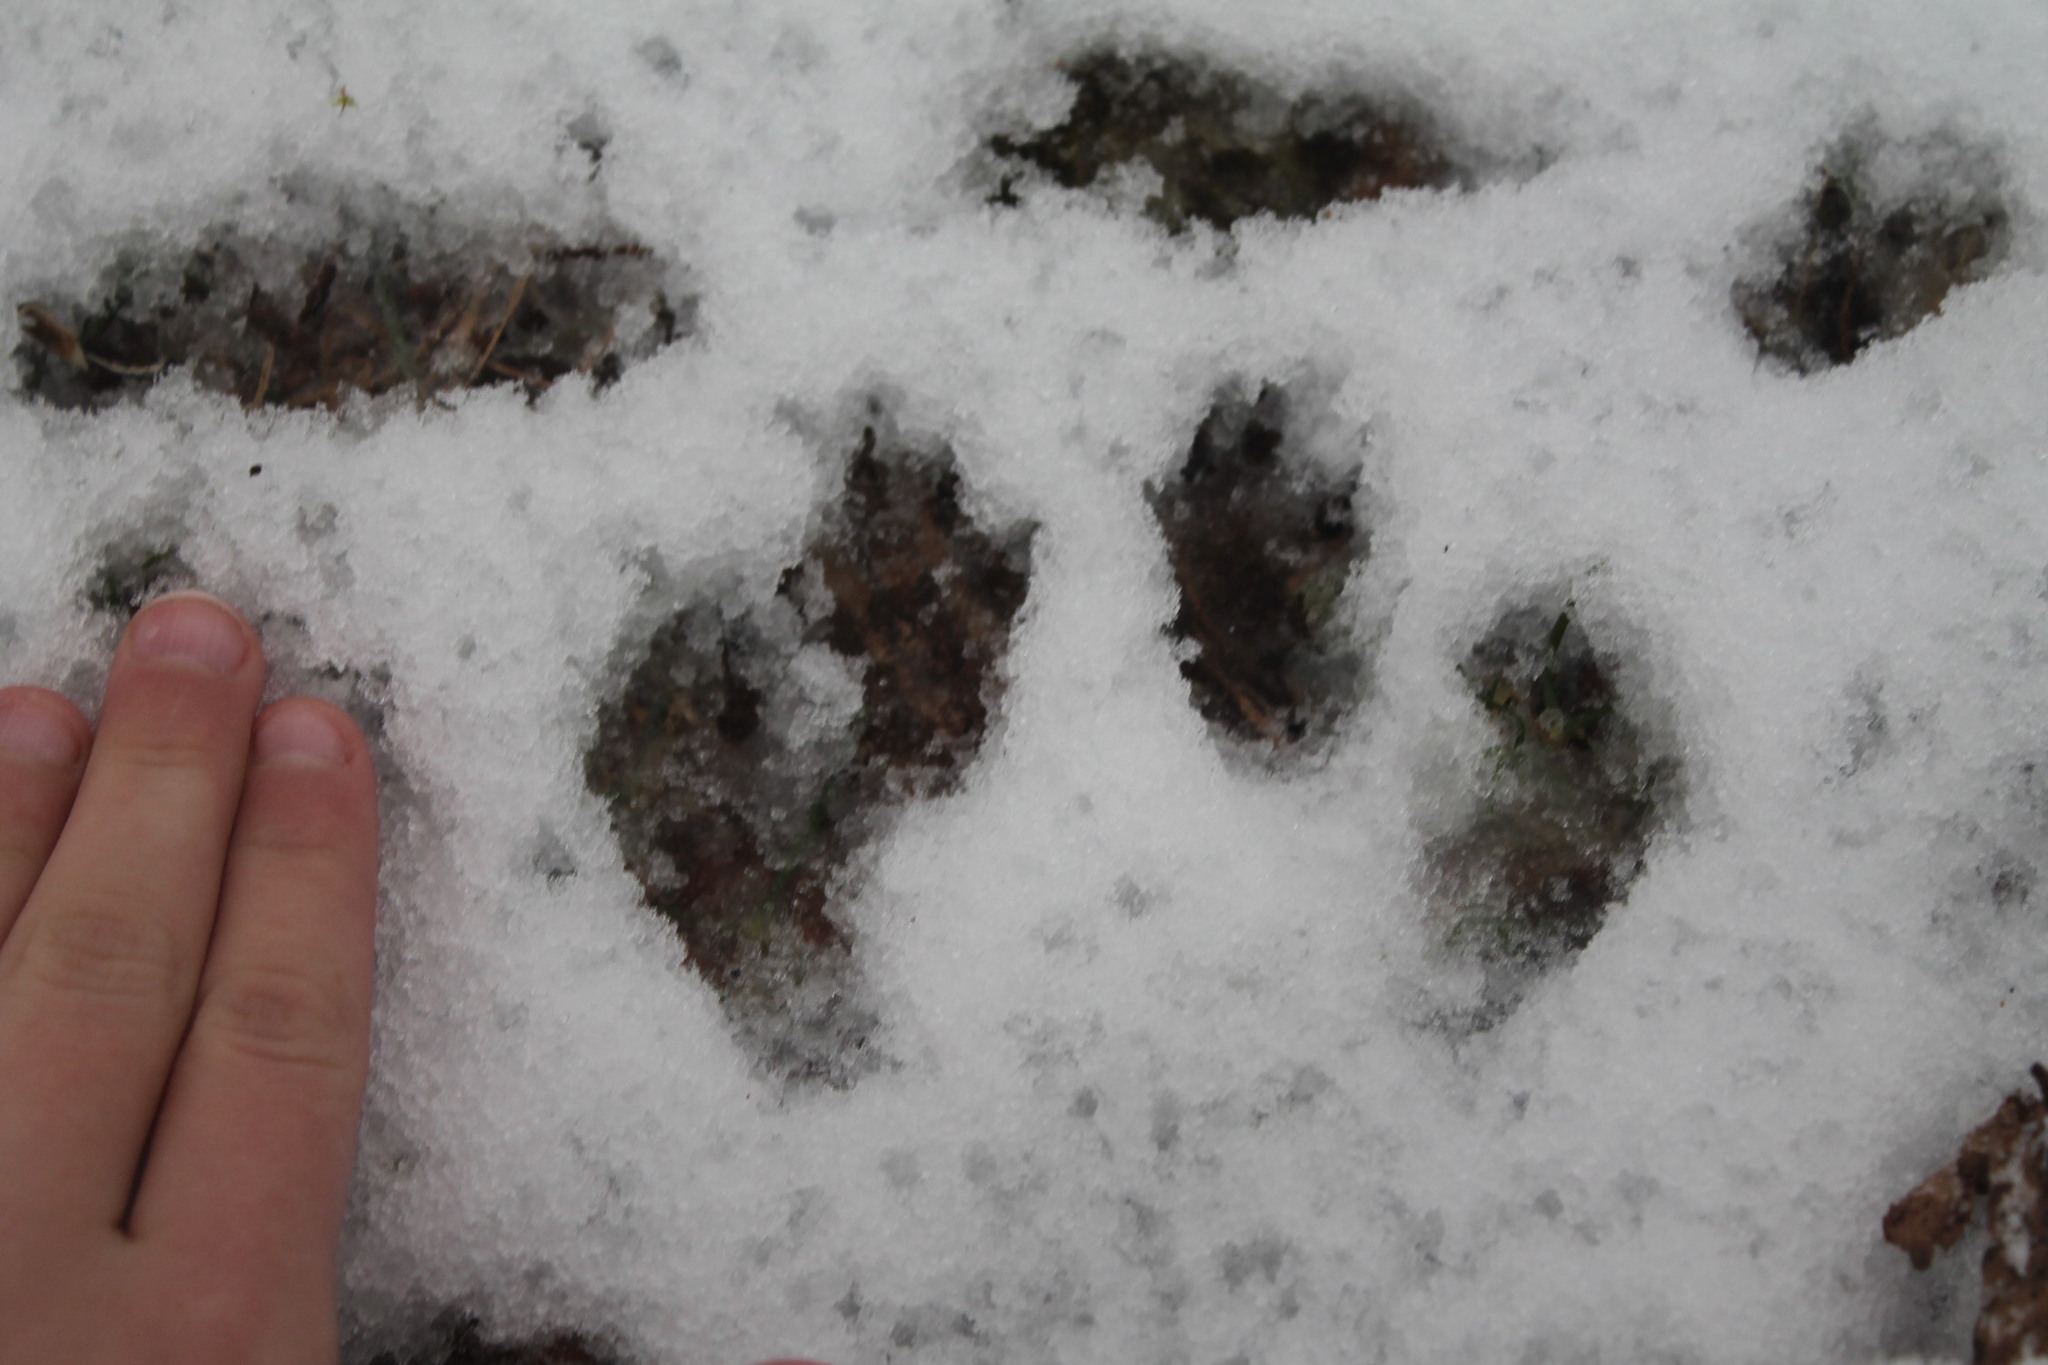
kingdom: Animalia
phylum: Chordata
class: Mammalia
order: Rodentia
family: Sciuridae
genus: Sciurus
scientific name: Sciurus carolinensis
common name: Eastern gray squirrel
